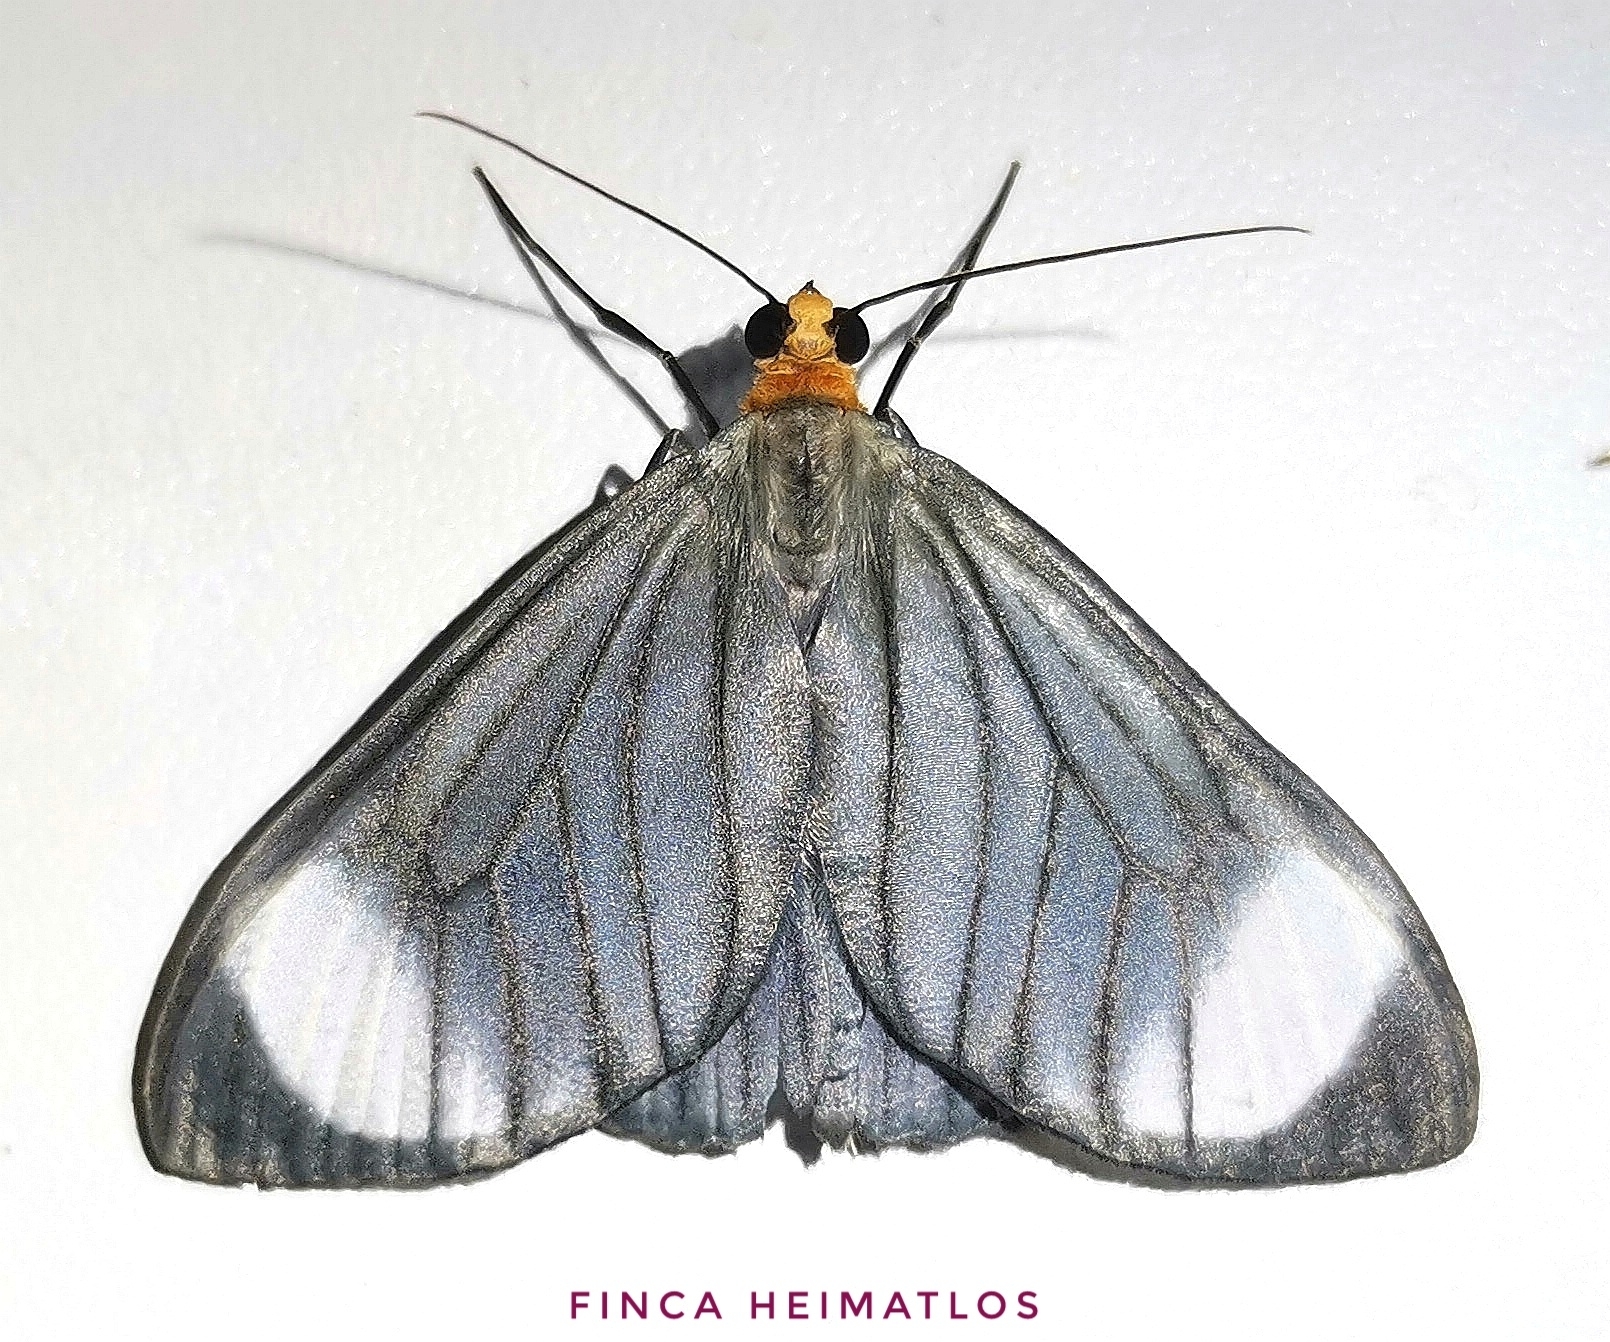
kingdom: Animalia
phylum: Arthropoda
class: Insecta
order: Lepidoptera
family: Geometridae
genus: Crocypus
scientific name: Crocypus perlucidaria
